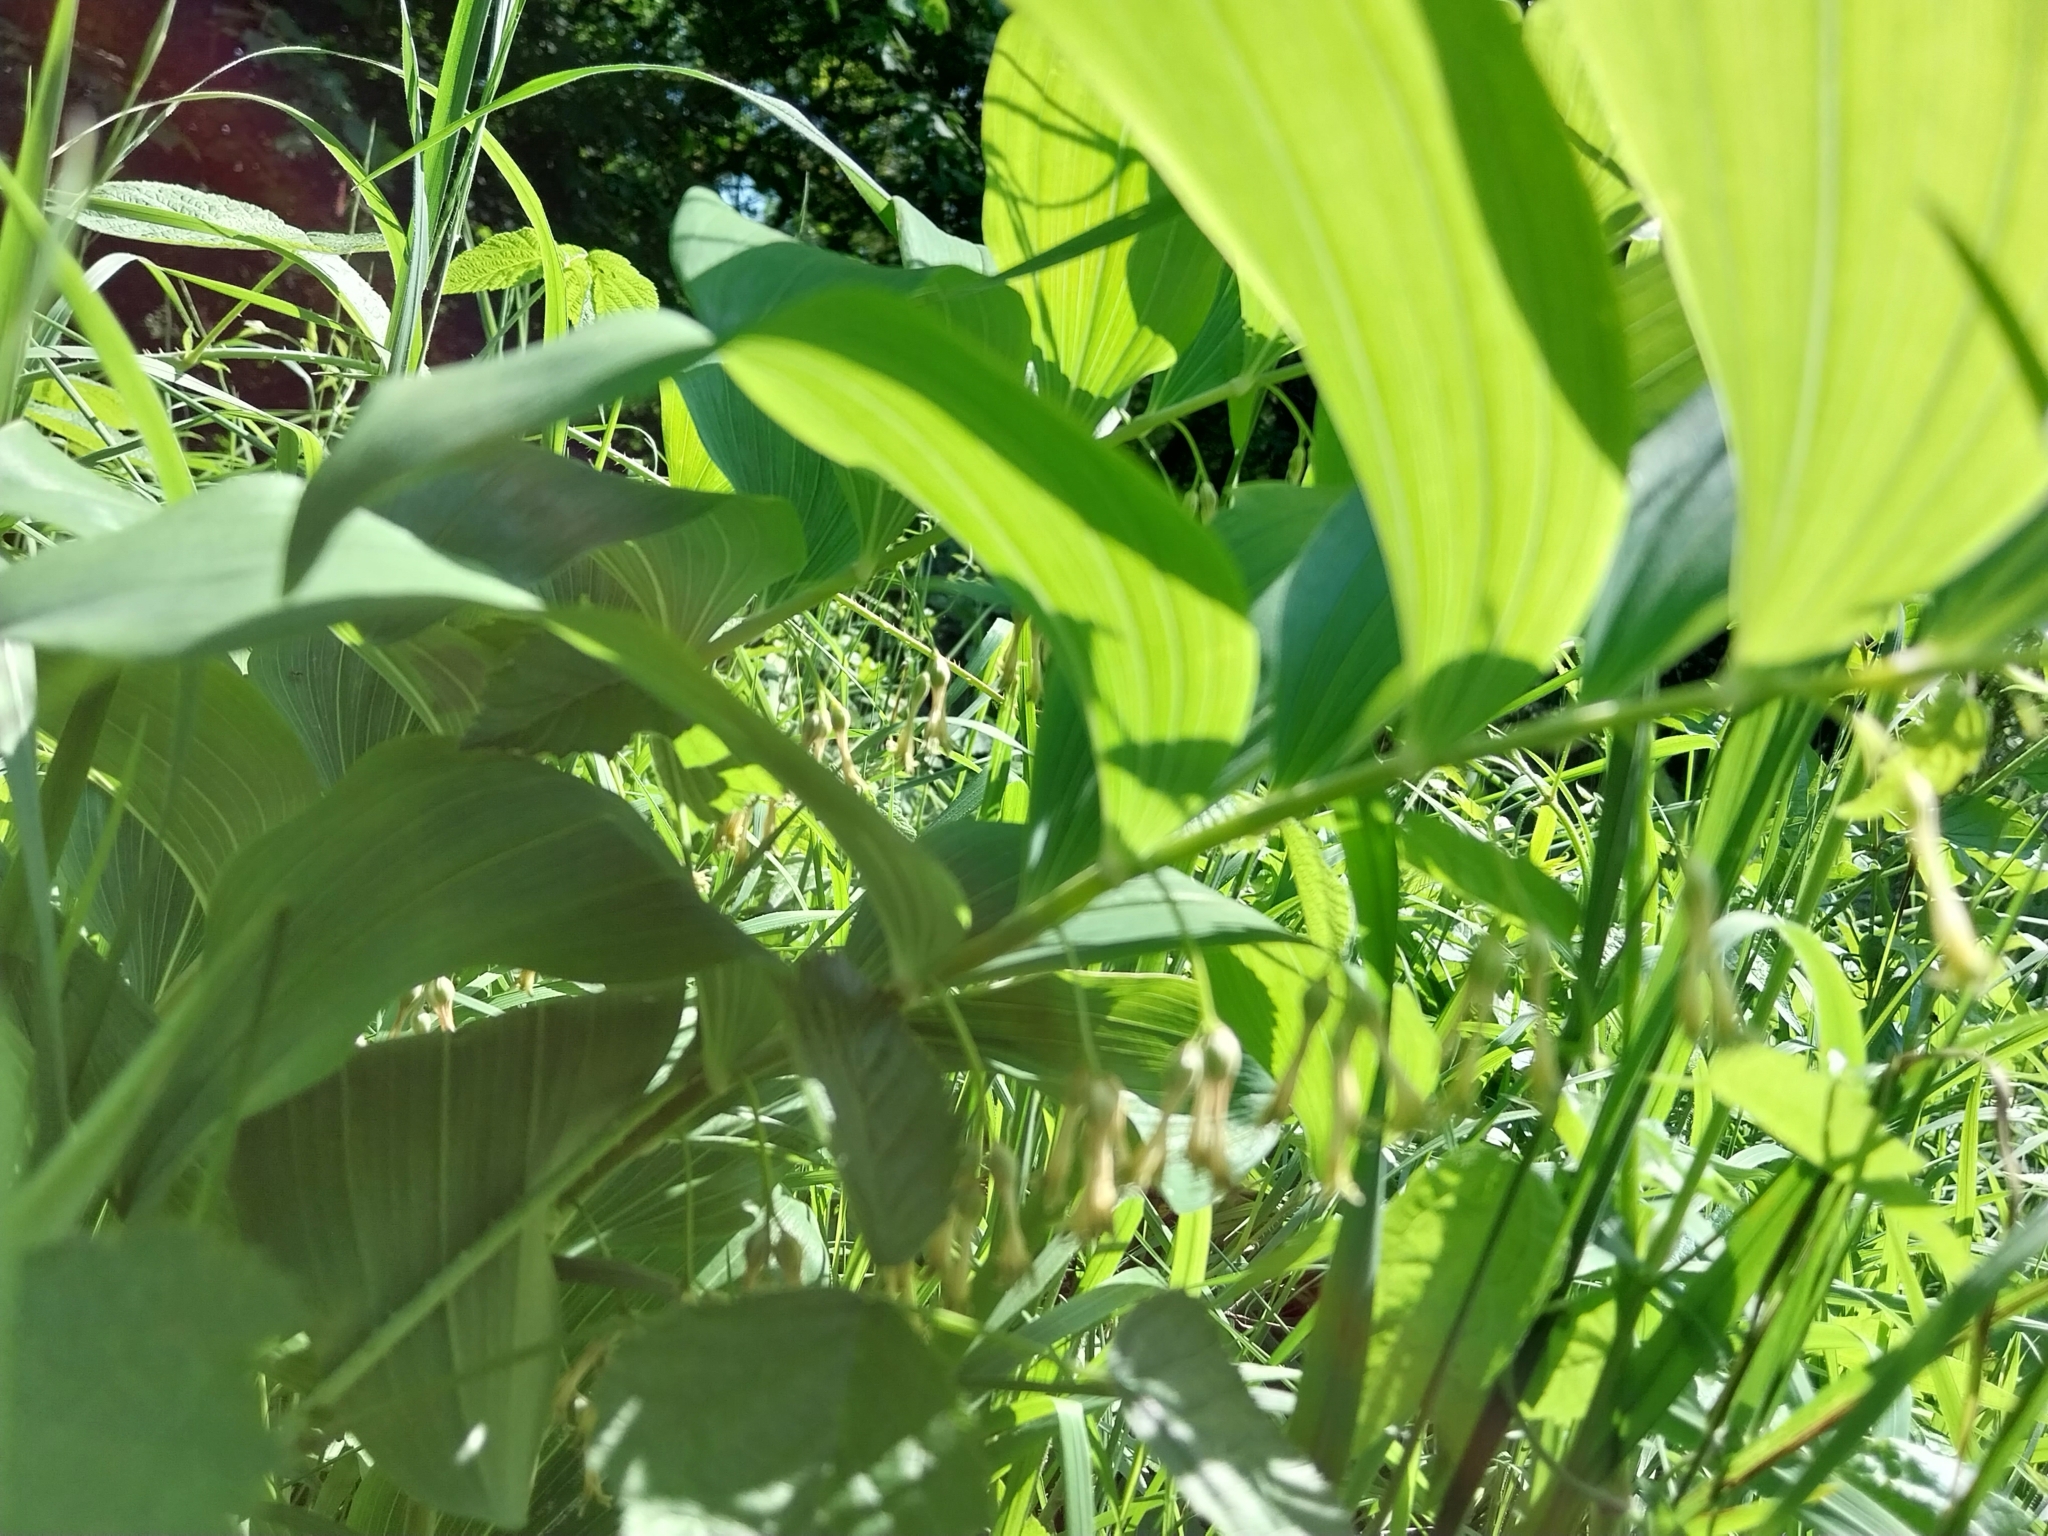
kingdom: Plantae
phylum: Tracheophyta
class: Liliopsida
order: Asparagales
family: Asparagaceae
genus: Polygonatum
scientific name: Polygonatum multiflorum
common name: Solomon's-seal
